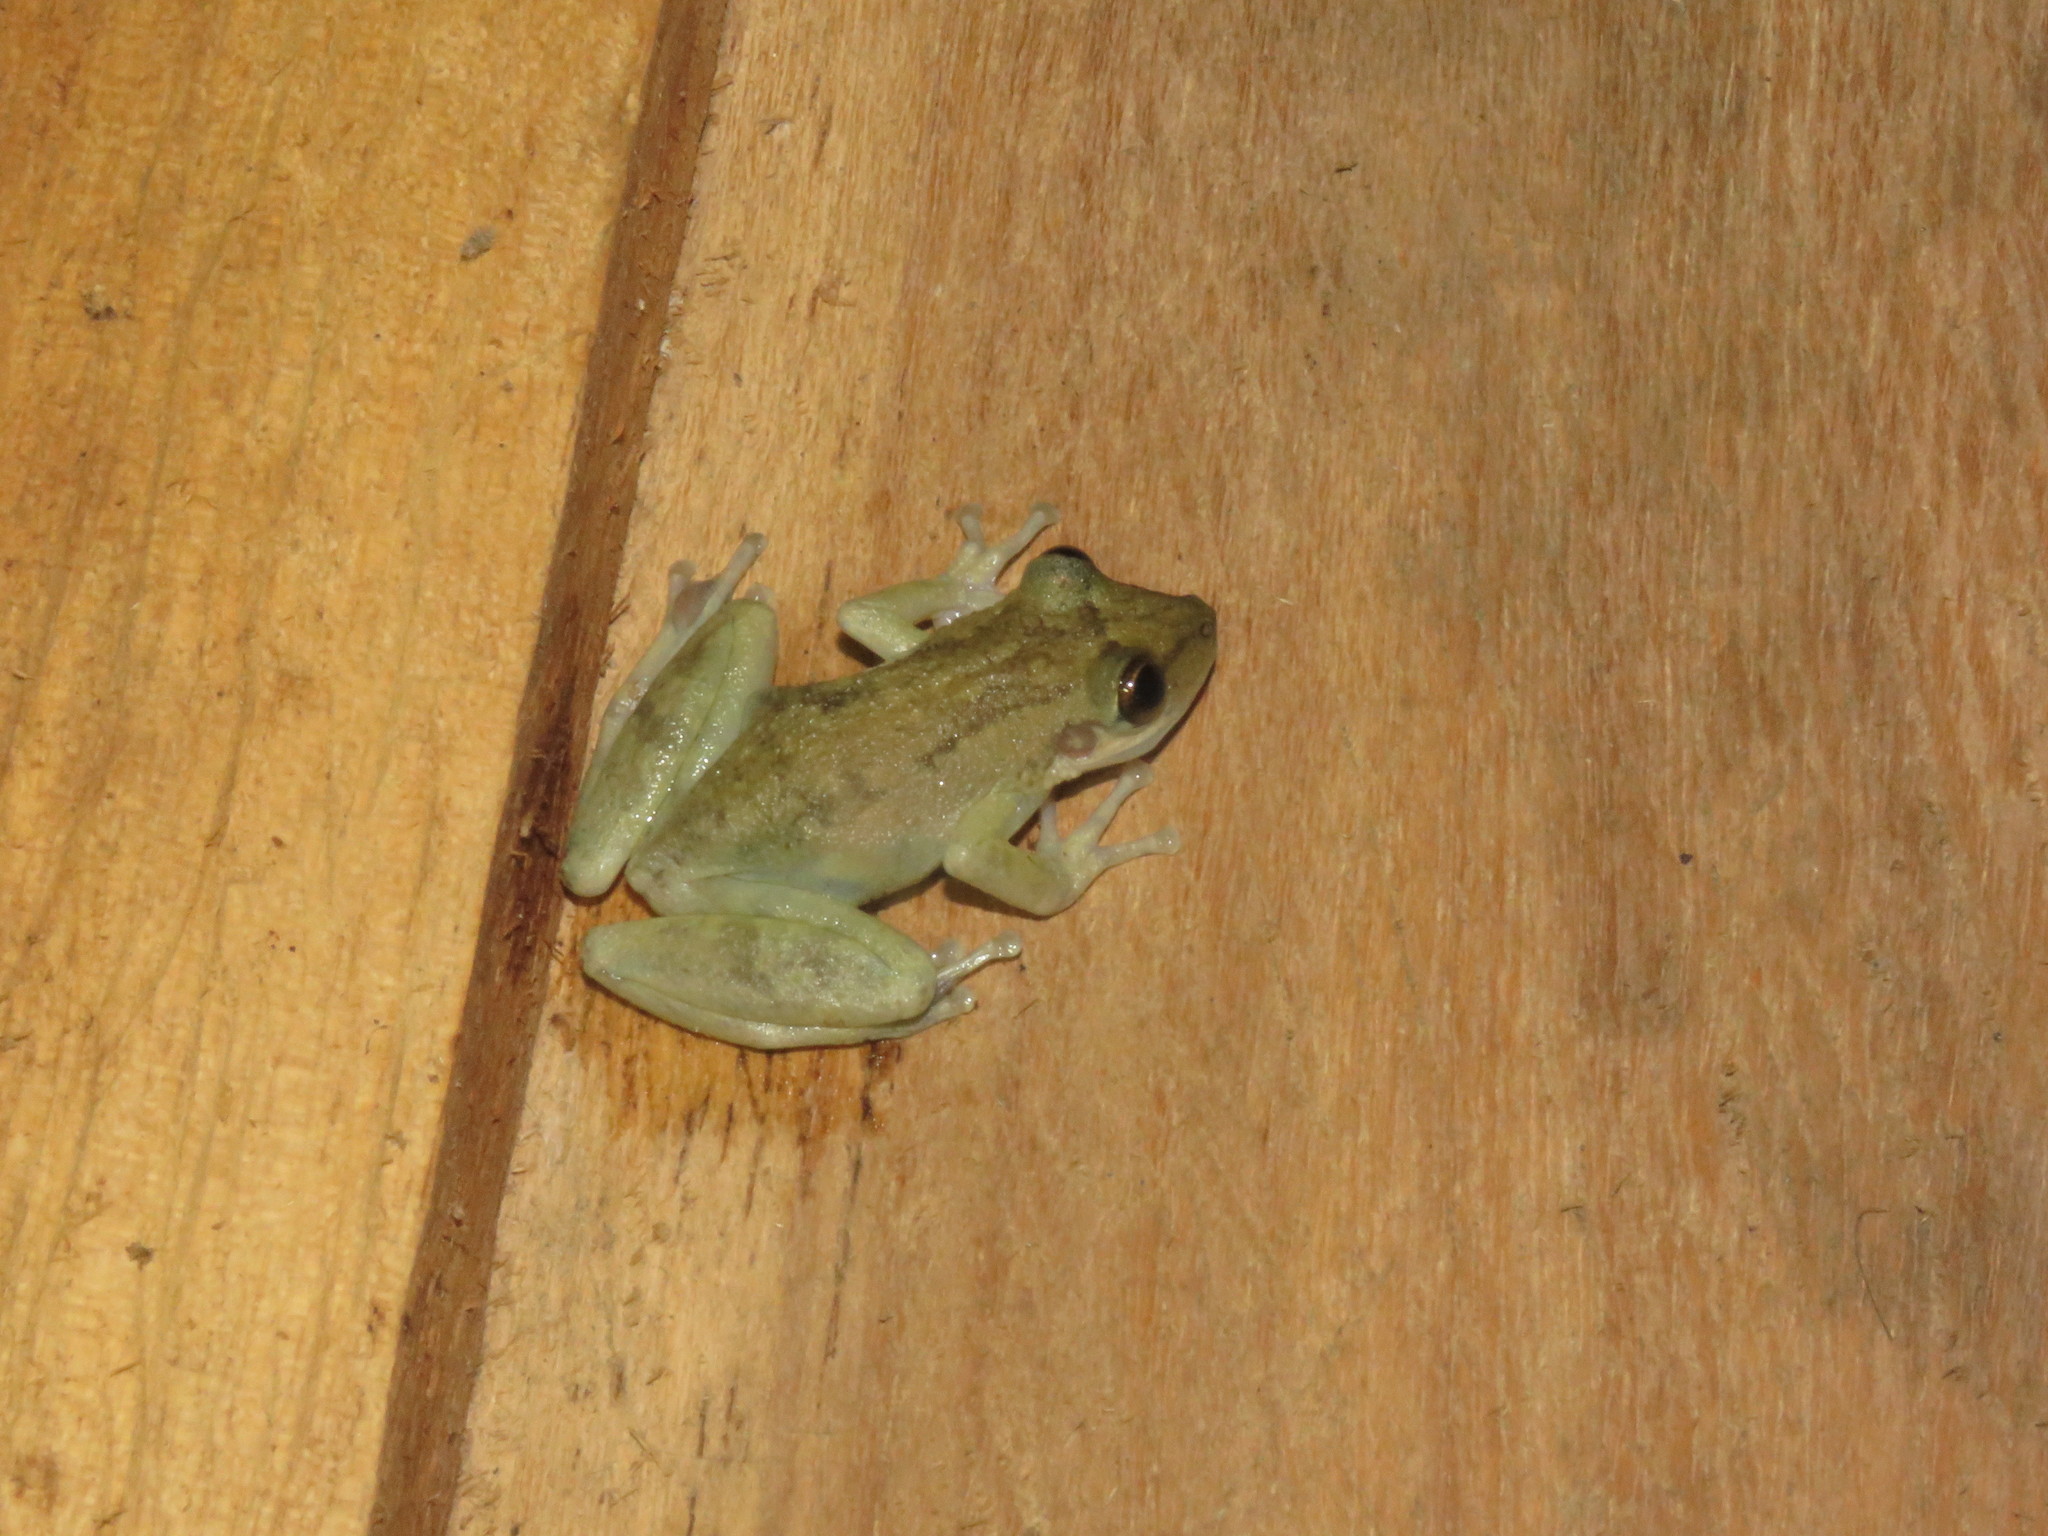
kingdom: Animalia
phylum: Chordata
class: Amphibia
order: Anura
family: Hylidae
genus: Scinax
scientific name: Scinax ruber
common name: Red snouted treefrog
